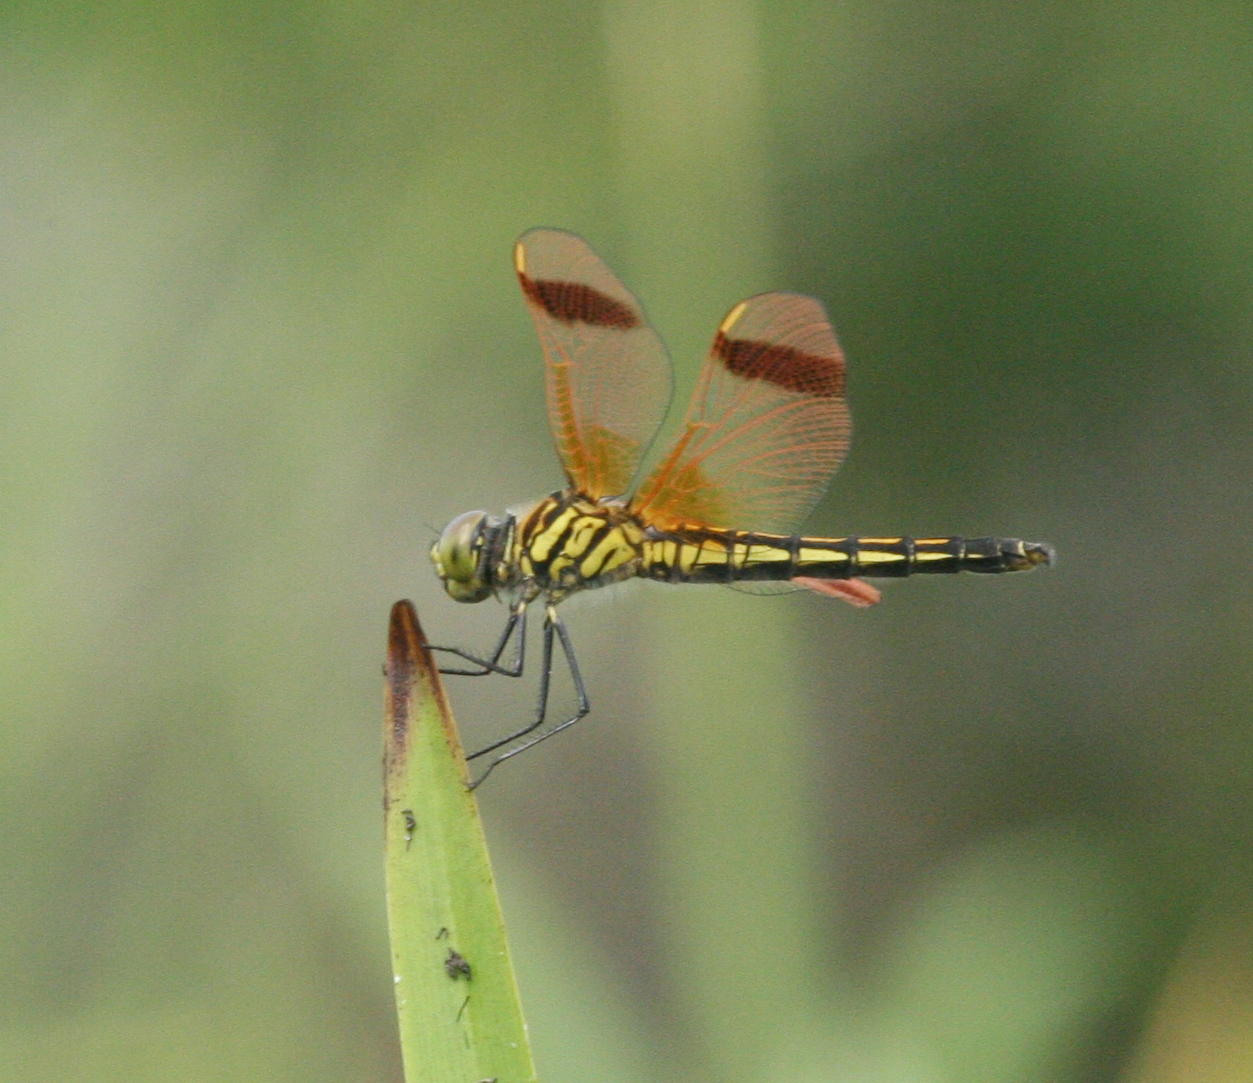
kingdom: Animalia
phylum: Arthropoda
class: Insecta
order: Odonata
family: Libellulidae
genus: Deielia
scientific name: Deielia phaon
